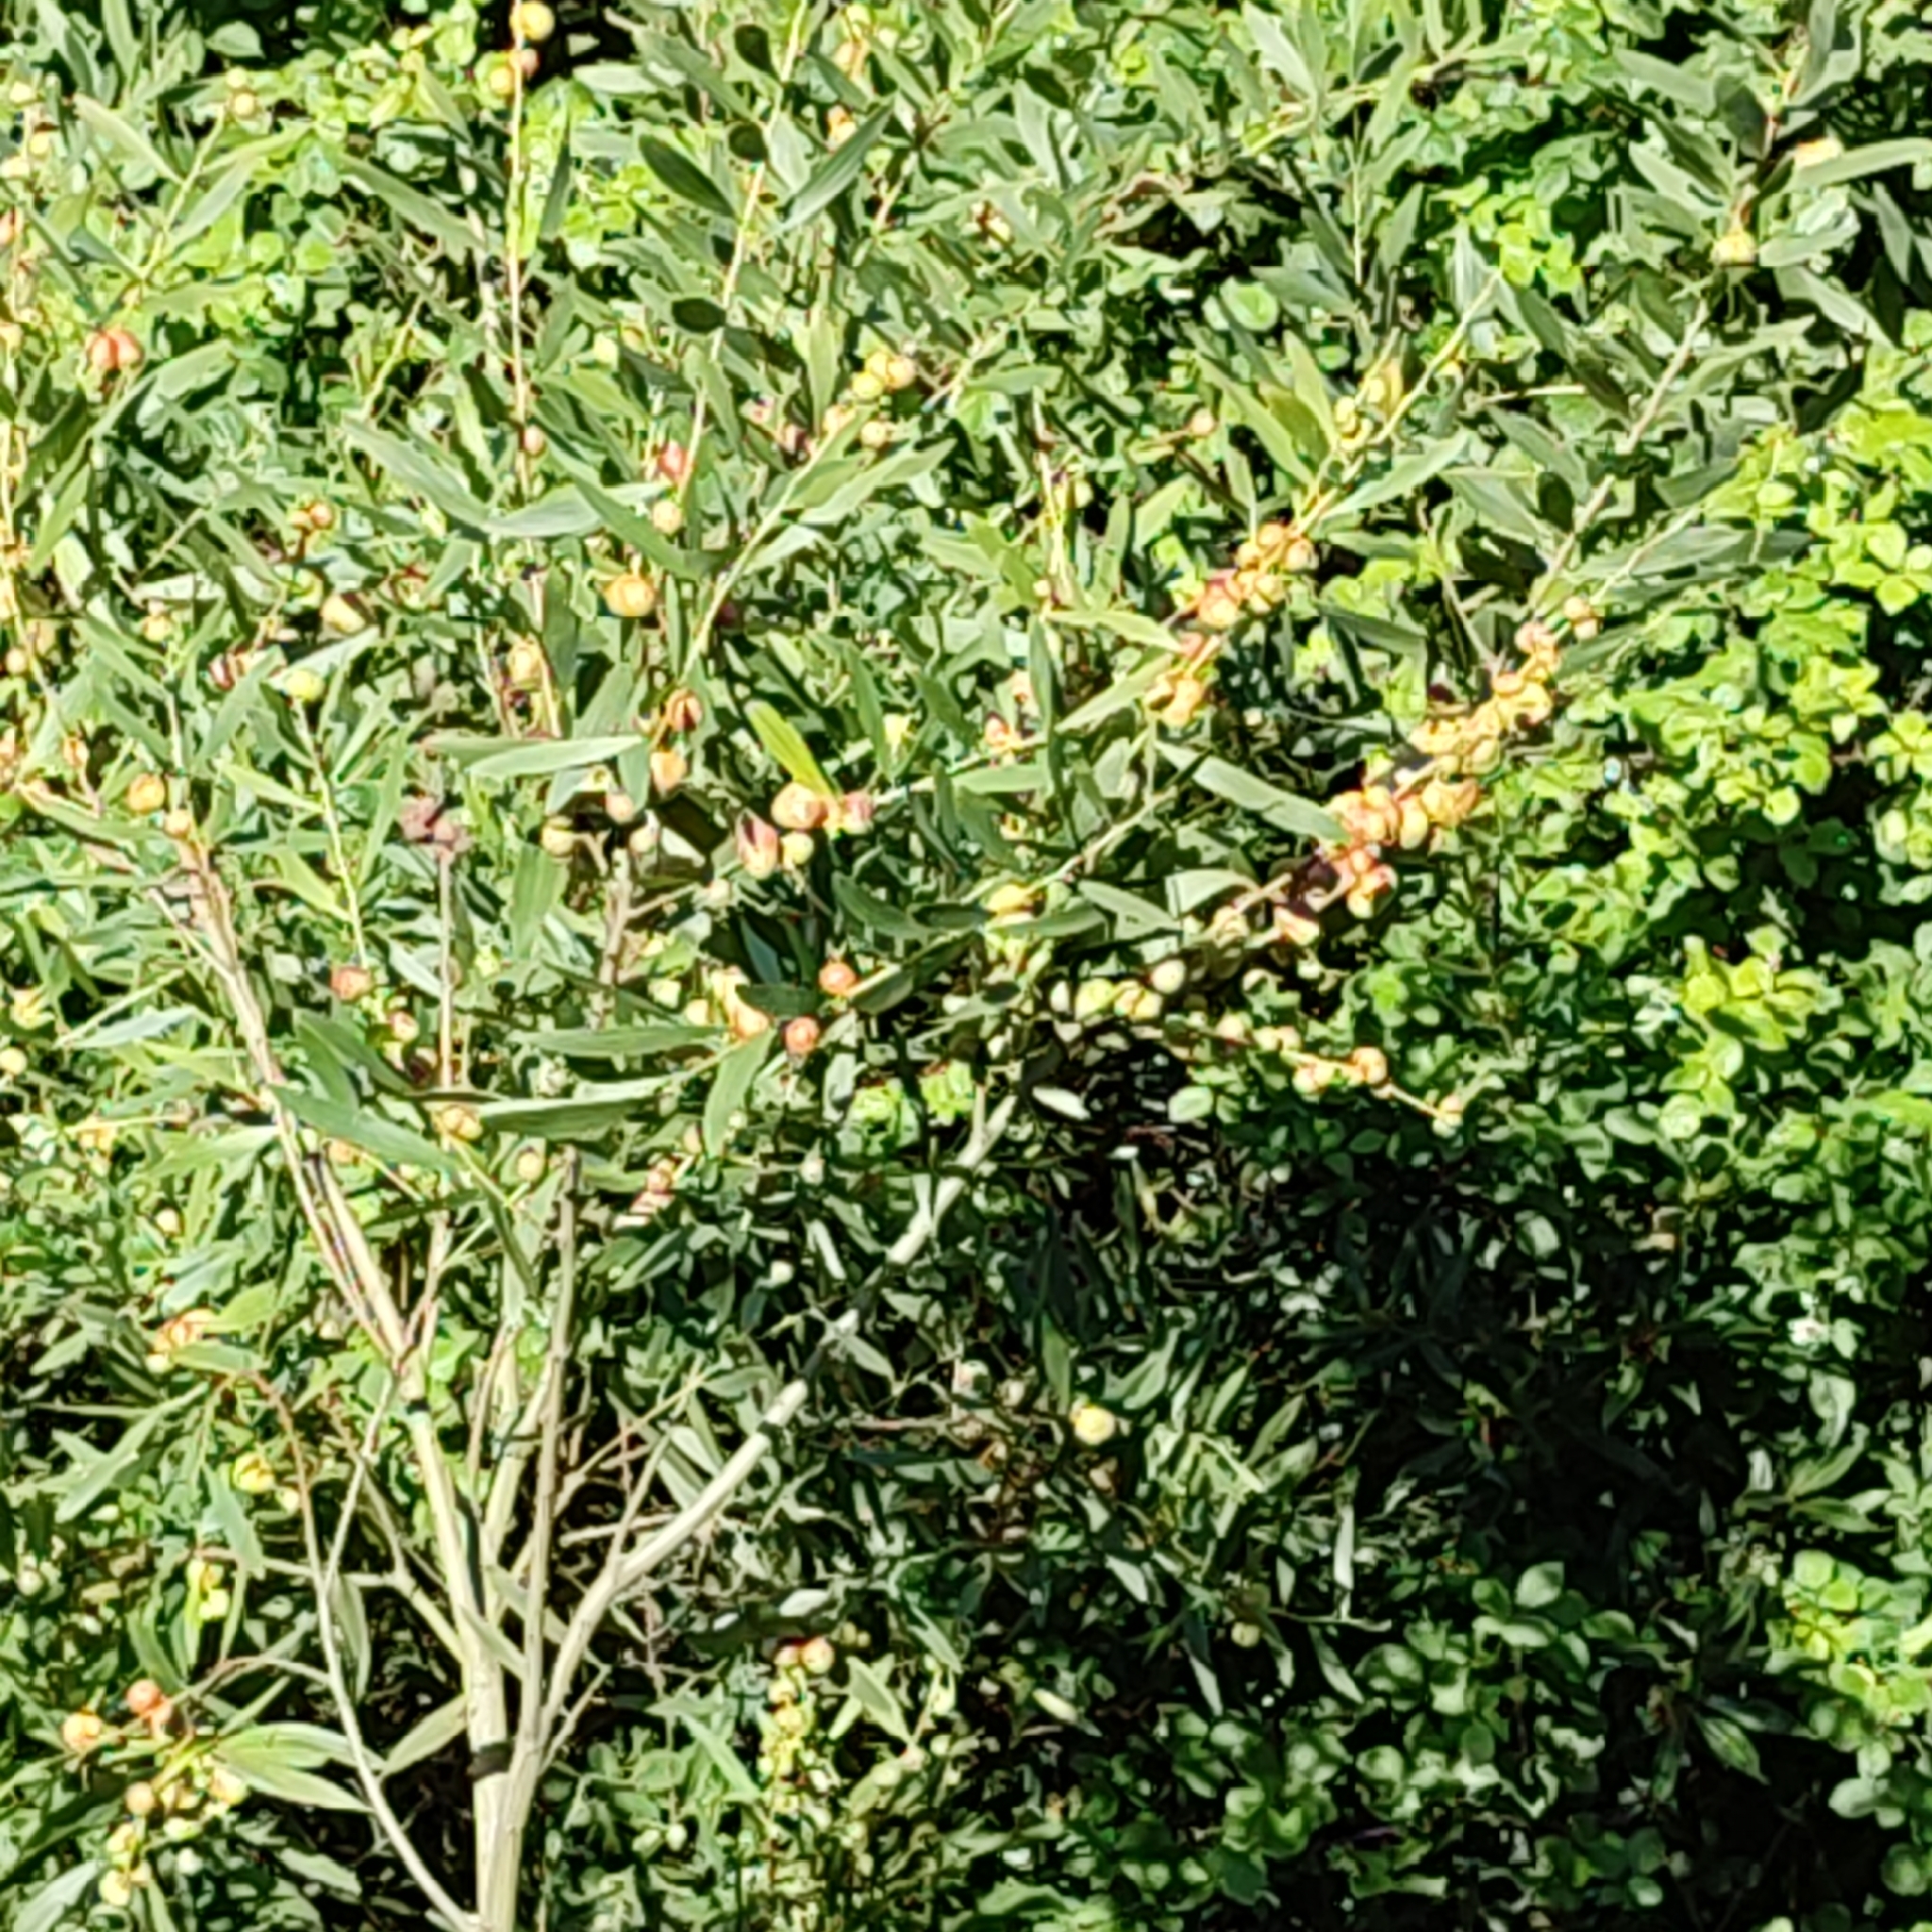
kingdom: Animalia
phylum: Arthropoda
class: Insecta
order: Hymenoptera
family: Pteromalidae
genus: Trichilogaster
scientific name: Trichilogaster acaciaelongifoliae
